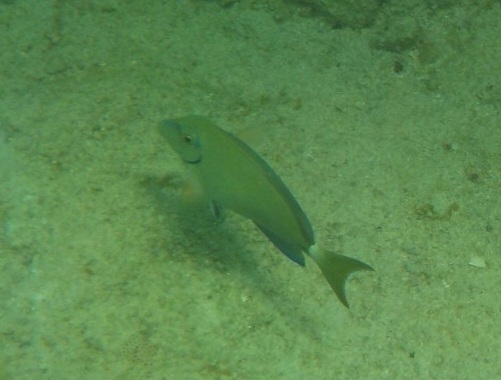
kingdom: Animalia
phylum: Chordata
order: Perciformes
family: Acanthuridae
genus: Acanthurus
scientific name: Acanthurus bahianus
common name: Ocean surgeon
